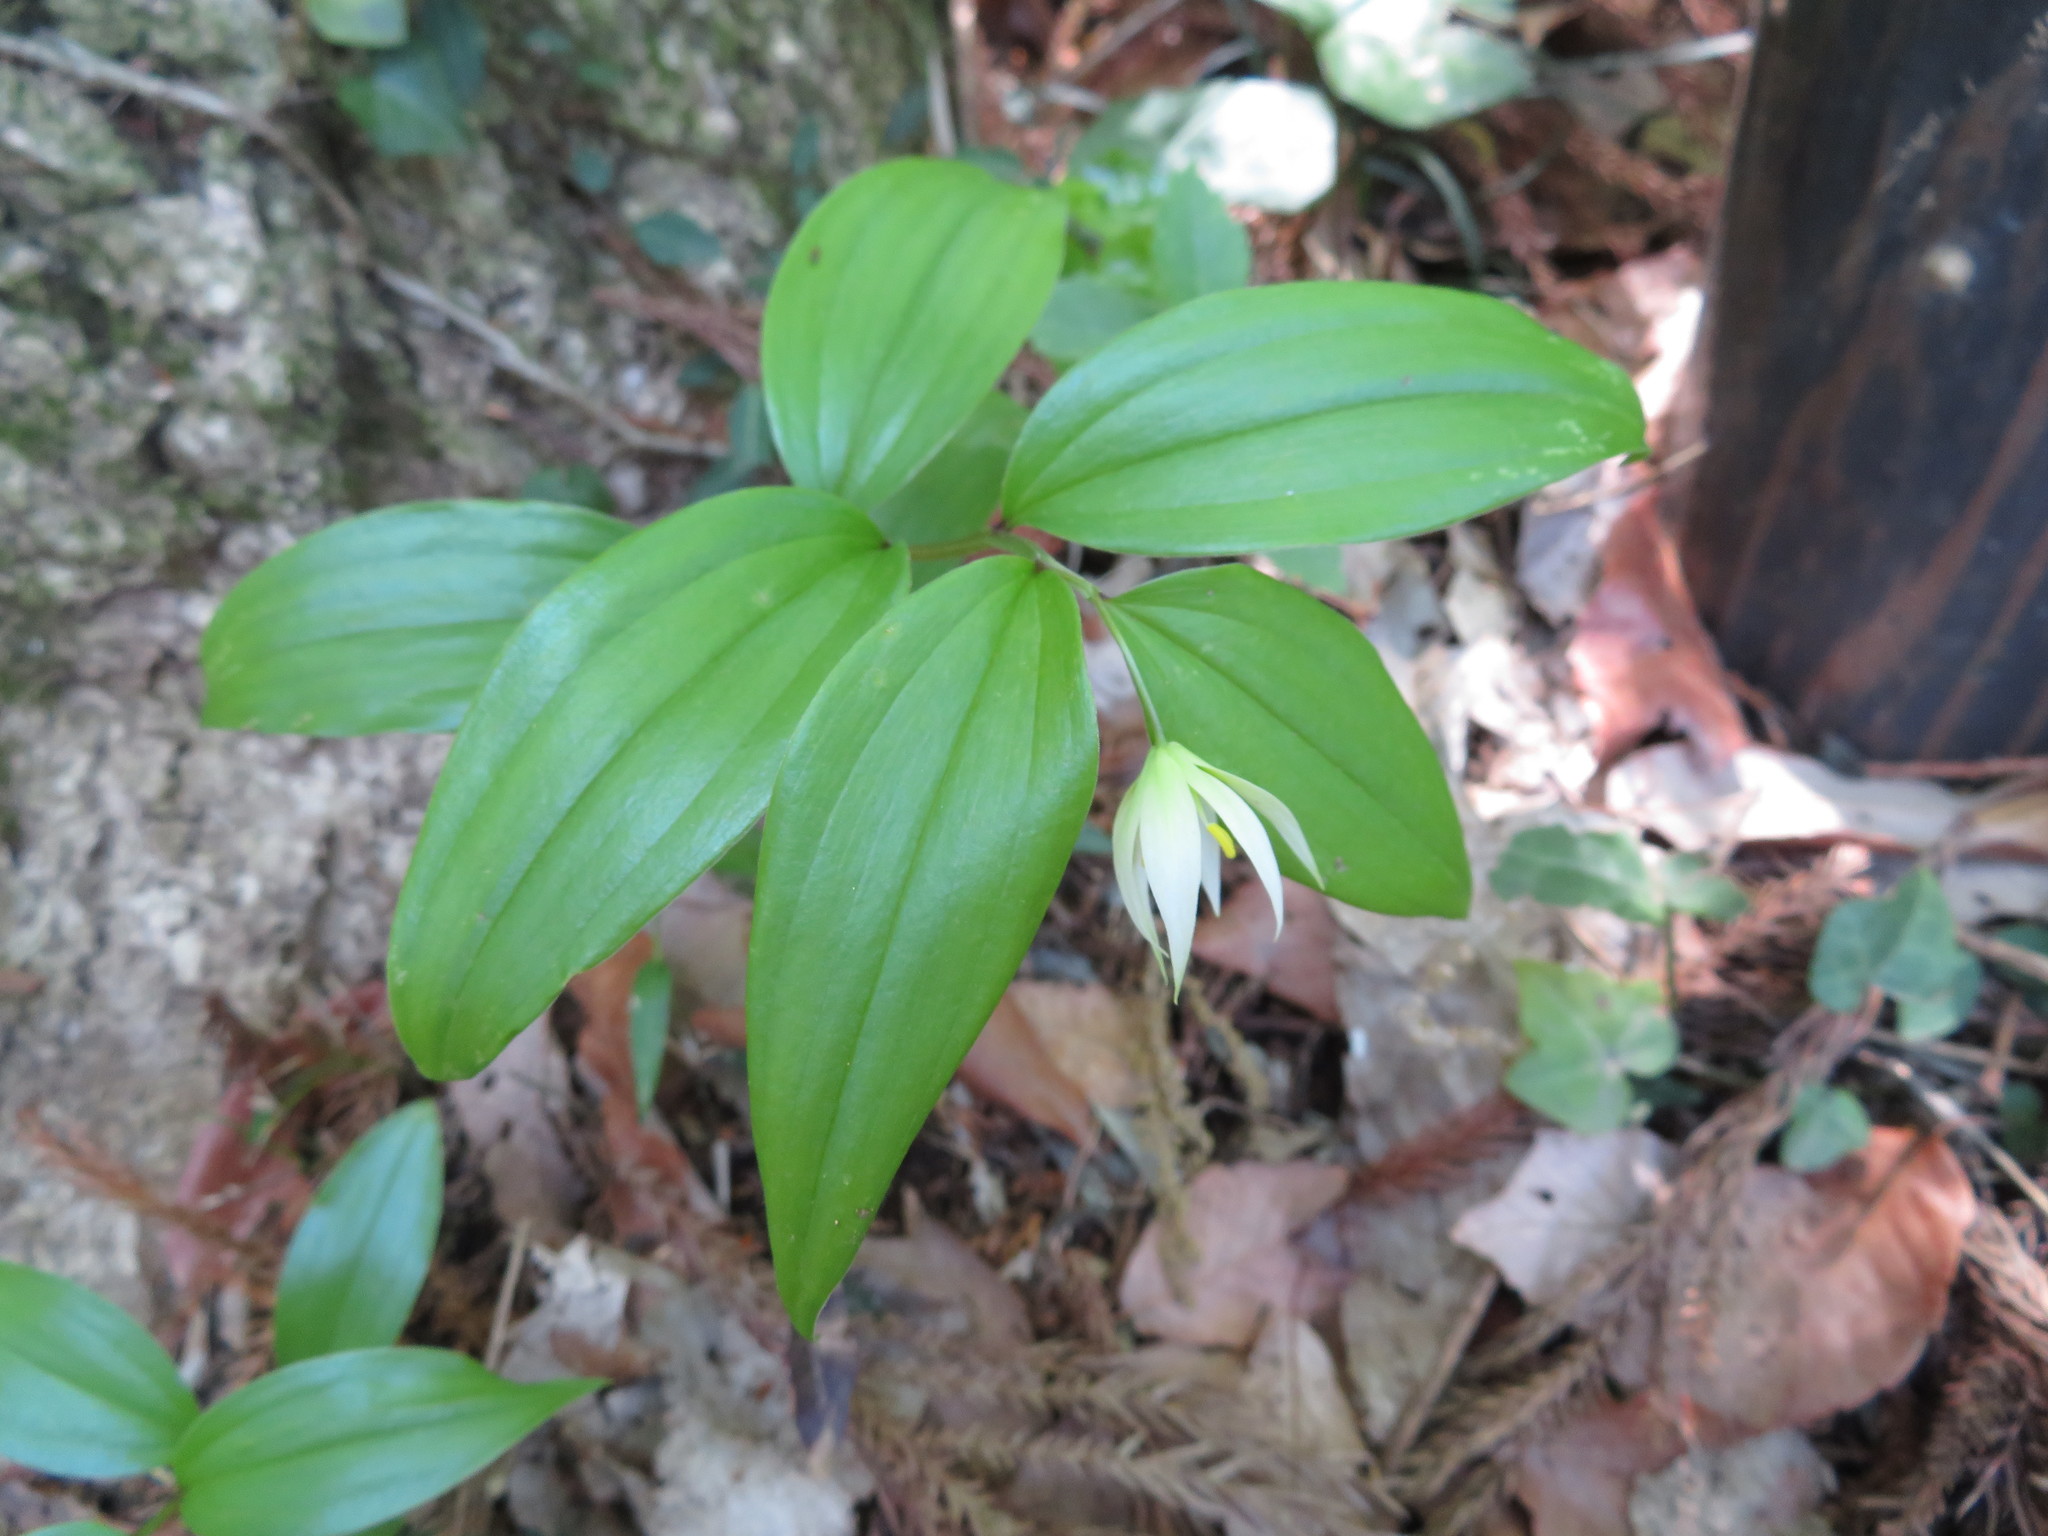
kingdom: Plantae
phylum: Tracheophyta
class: Liliopsida
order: Liliales
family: Colchicaceae
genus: Disporum
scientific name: Disporum smilacinum
